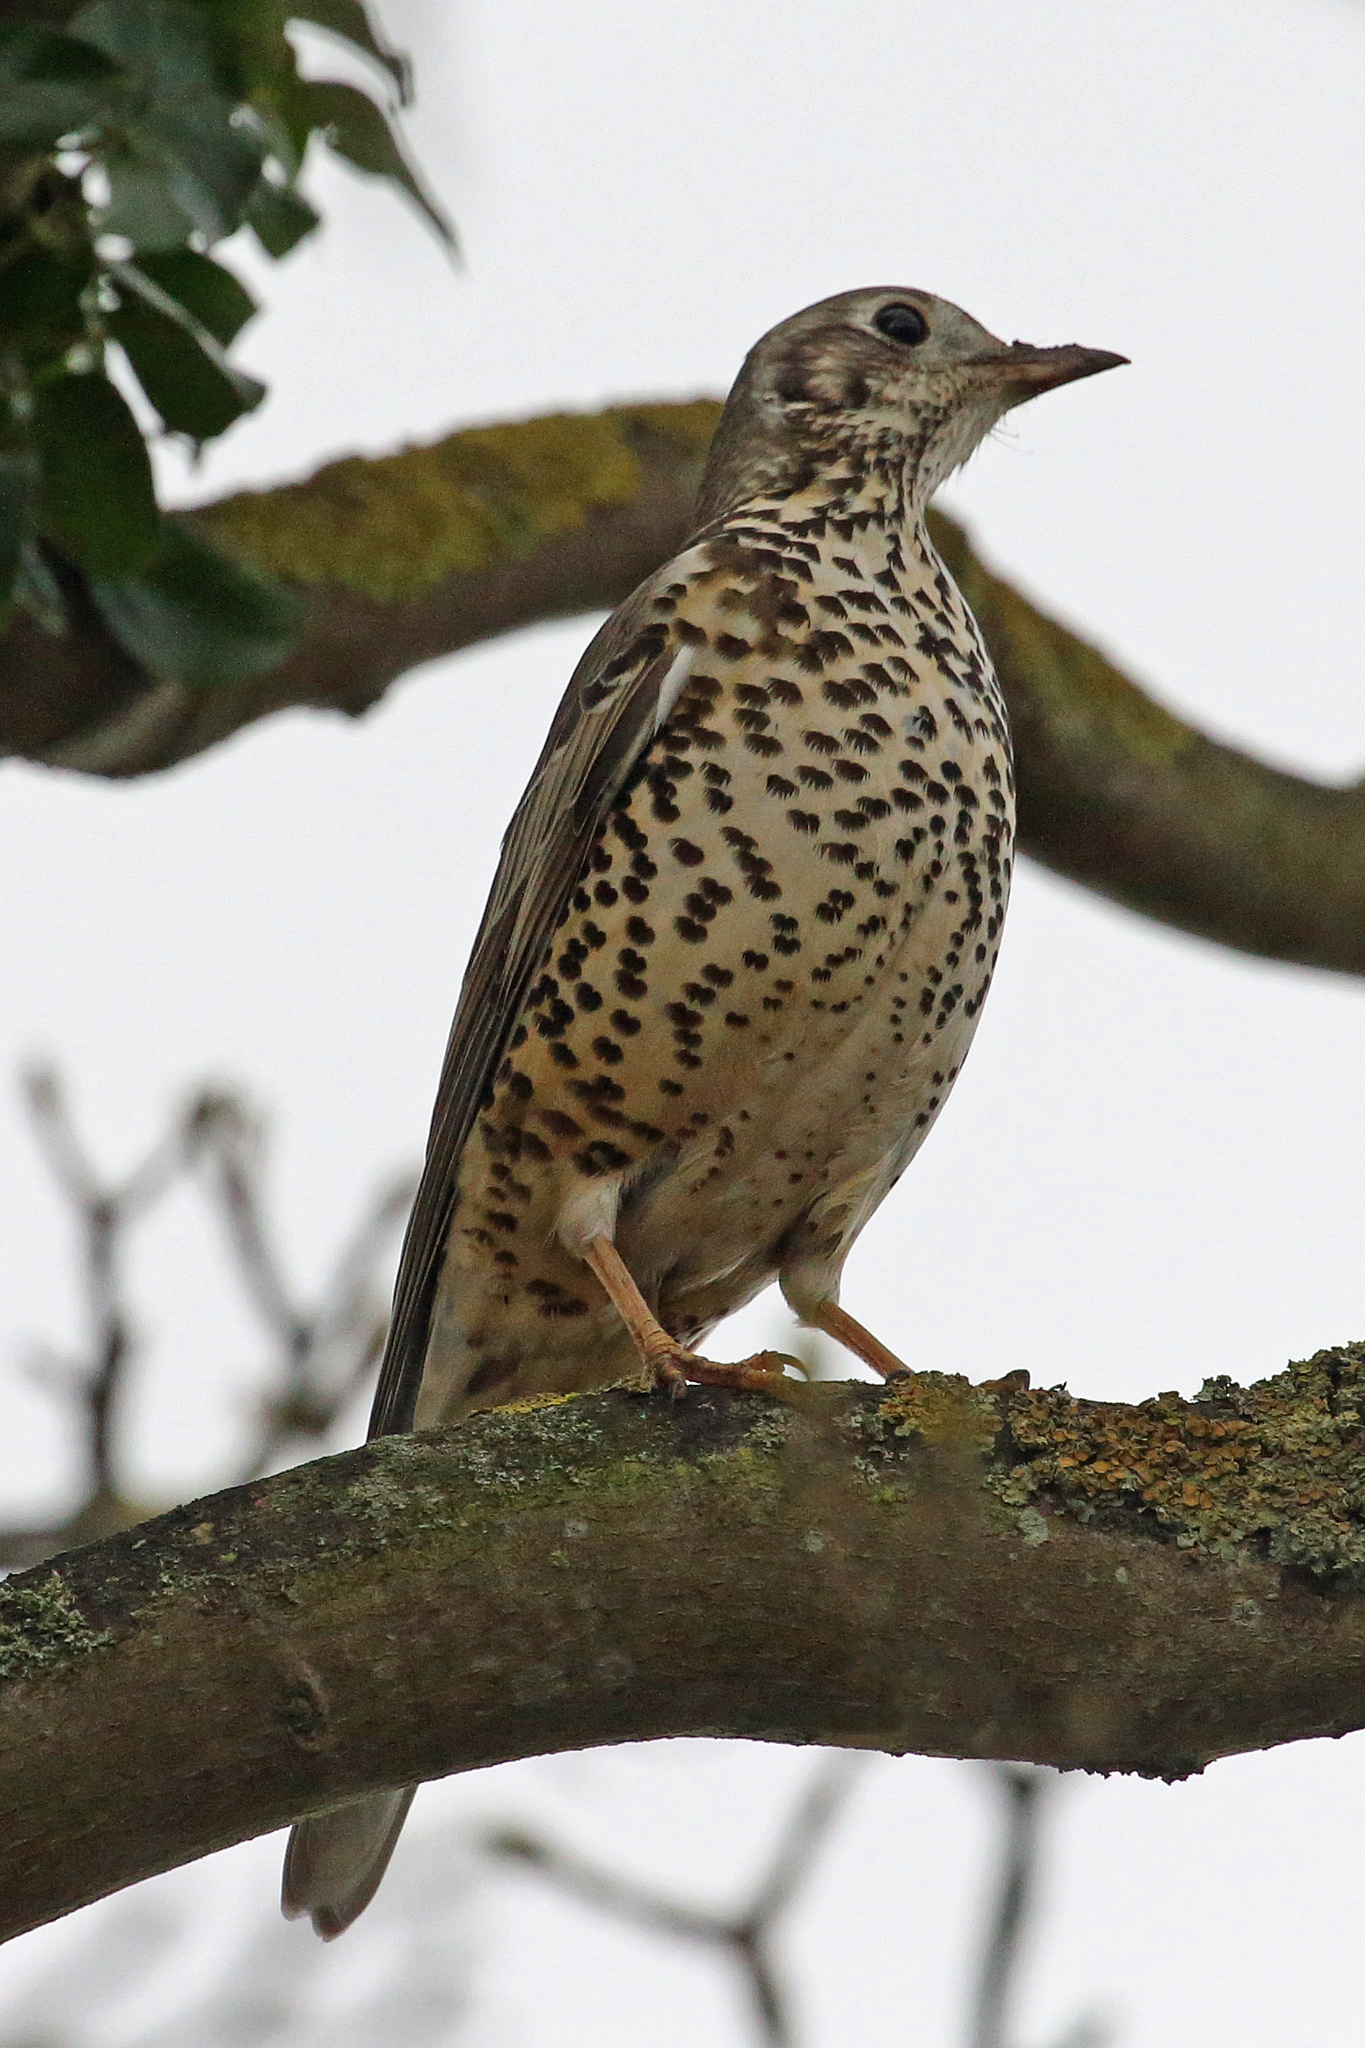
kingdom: Animalia
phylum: Chordata
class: Aves
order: Passeriformes
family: Turdidae
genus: Turdus
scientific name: Turdus viscivorus
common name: Mistle thrush
